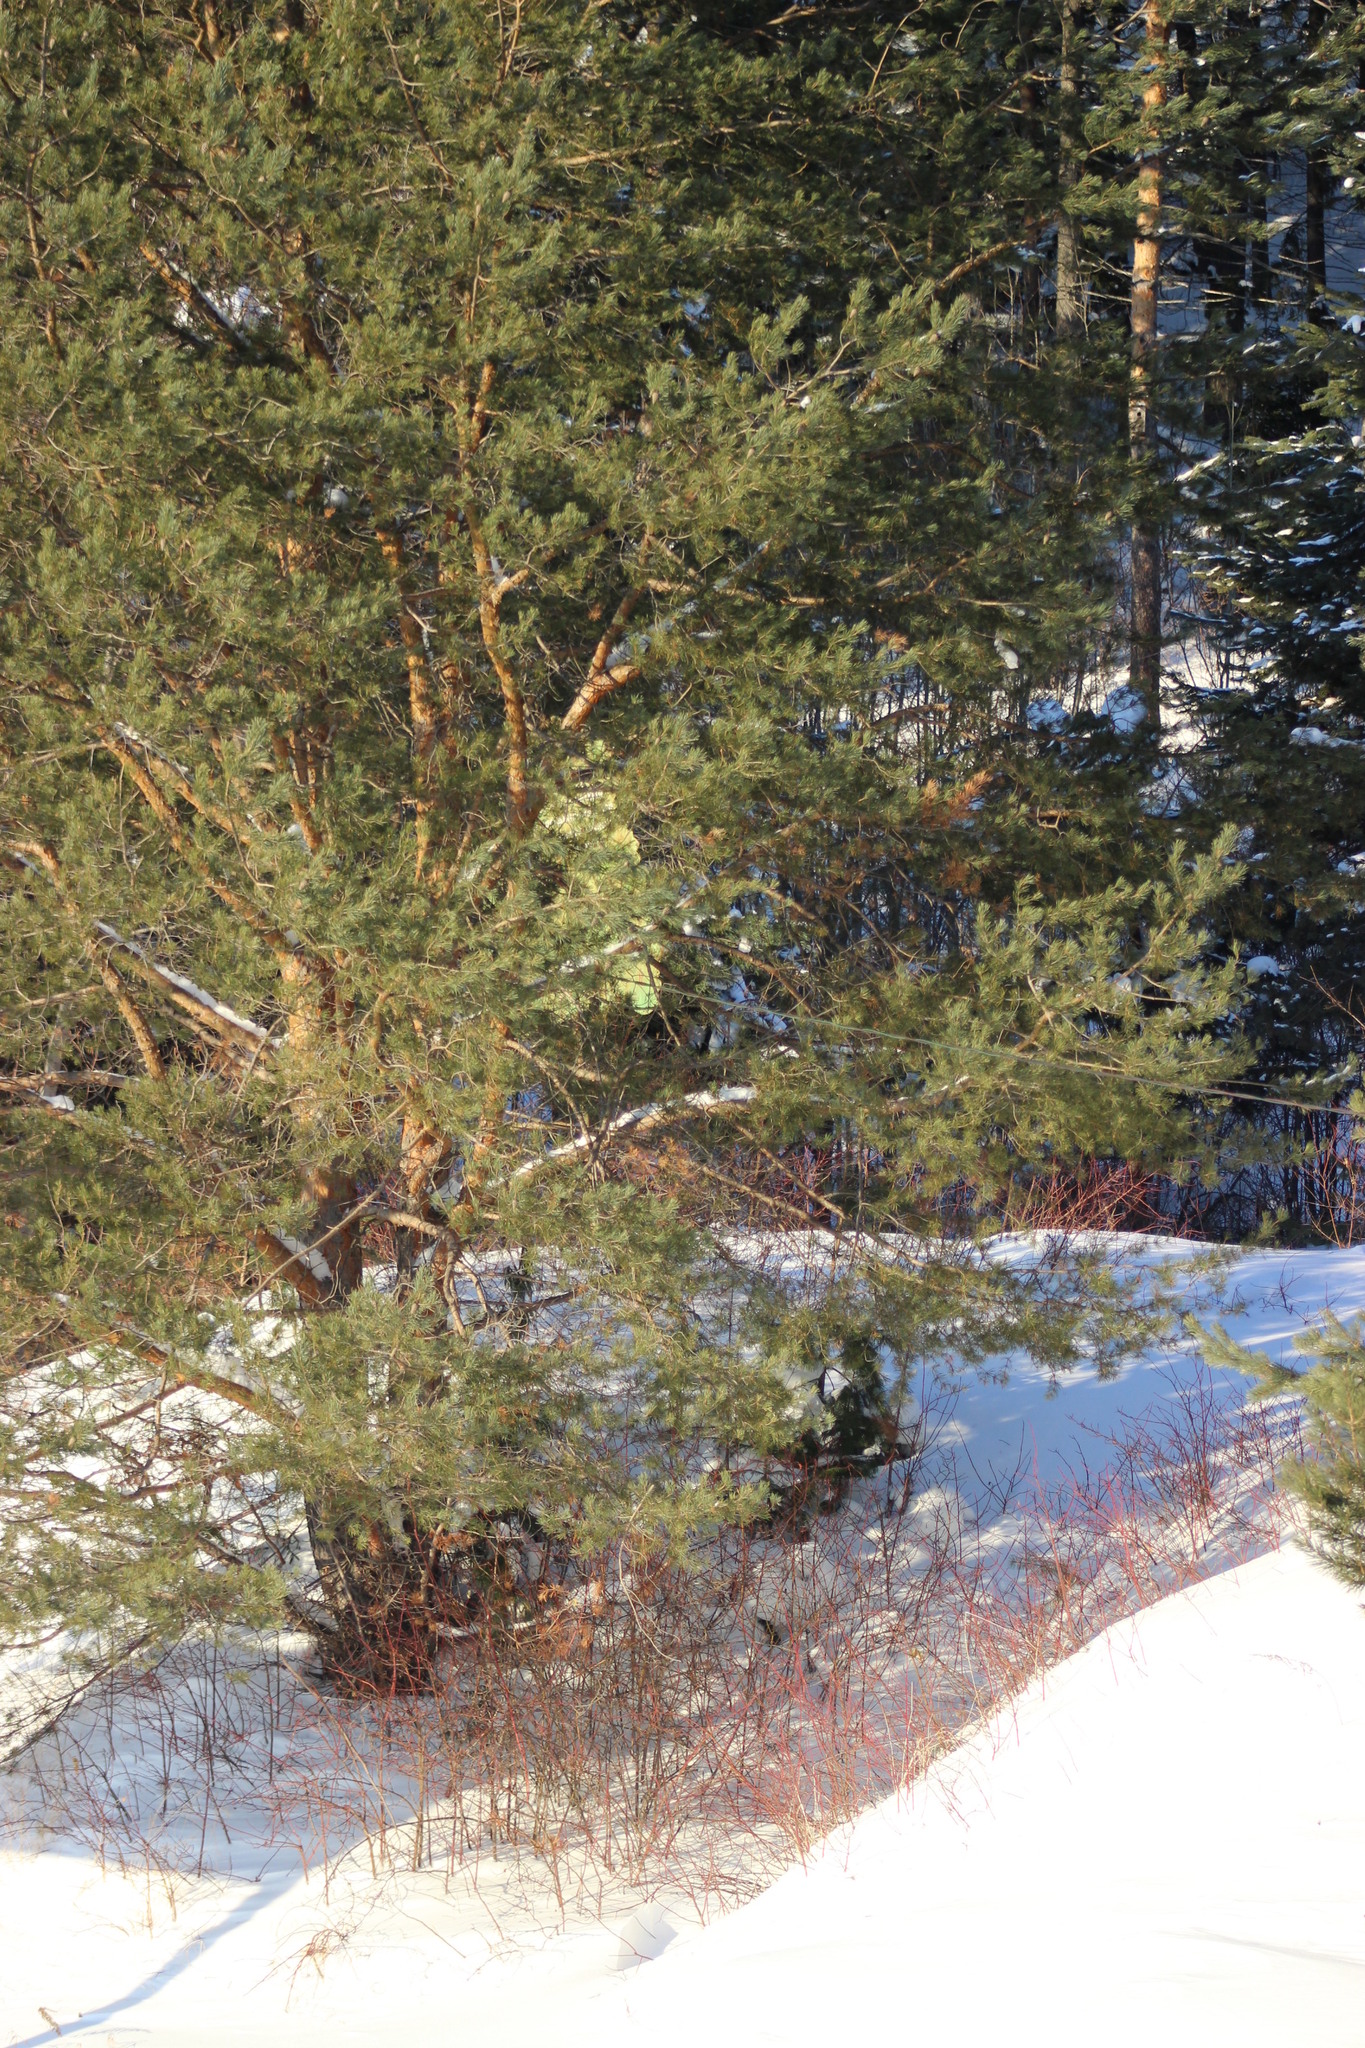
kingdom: Plantae
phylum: Tracheophyta
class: Pinopsida
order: Pinales
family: Pinaceae
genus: Pinus
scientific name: Pinus sylvestris
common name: Scots pine
